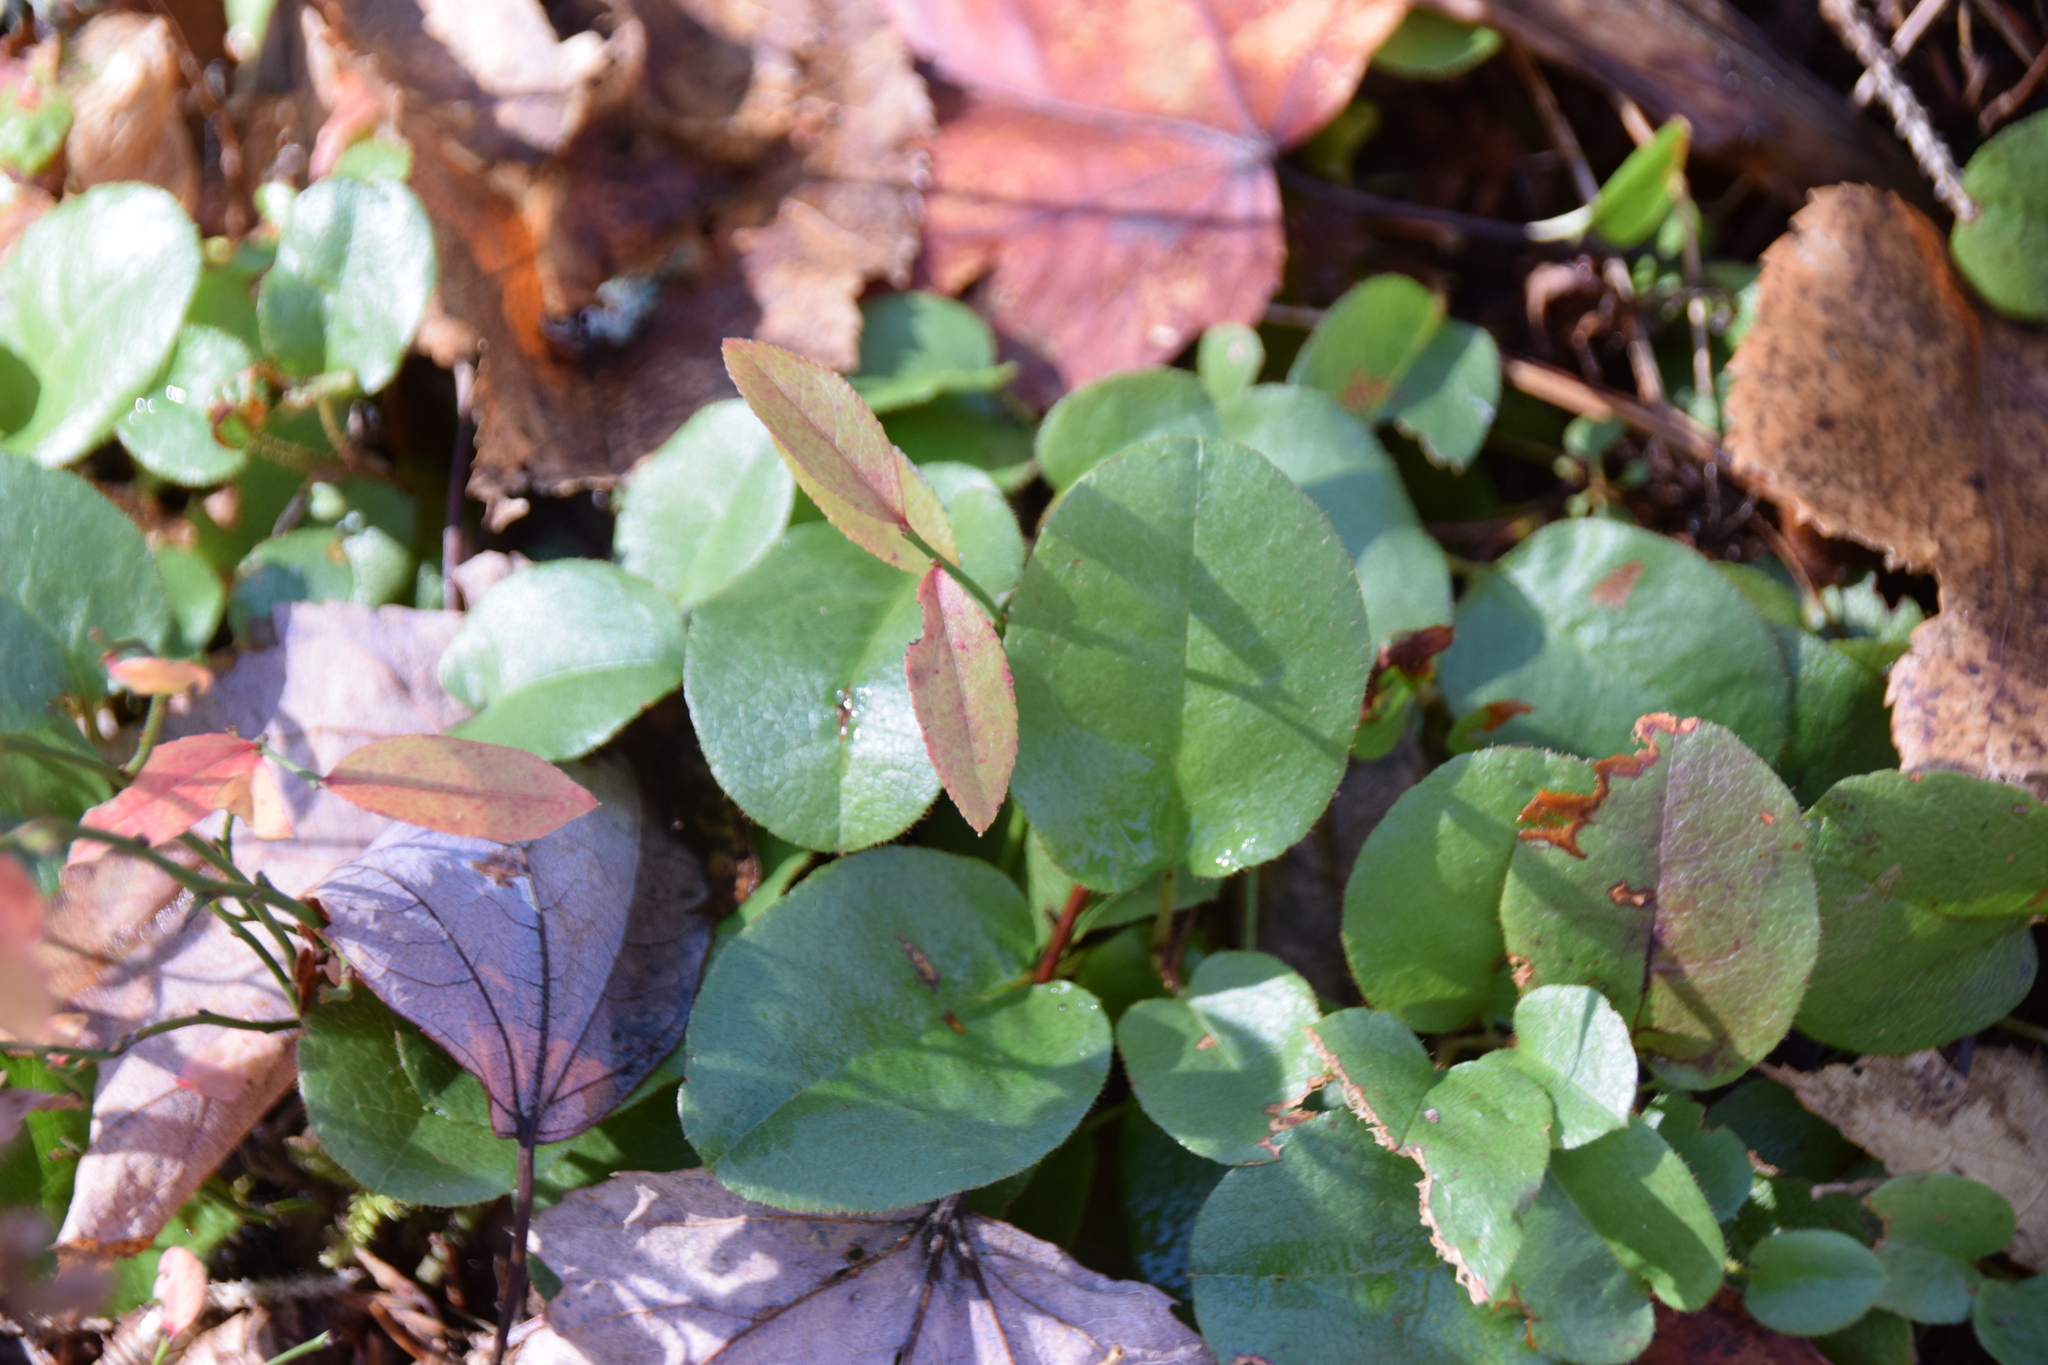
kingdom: Plantae
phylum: Tracheophyta
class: Magnoliopsida
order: Ericales
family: Ericaceae
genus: Epigaea
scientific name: Epigaea repens
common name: Gravelroot
